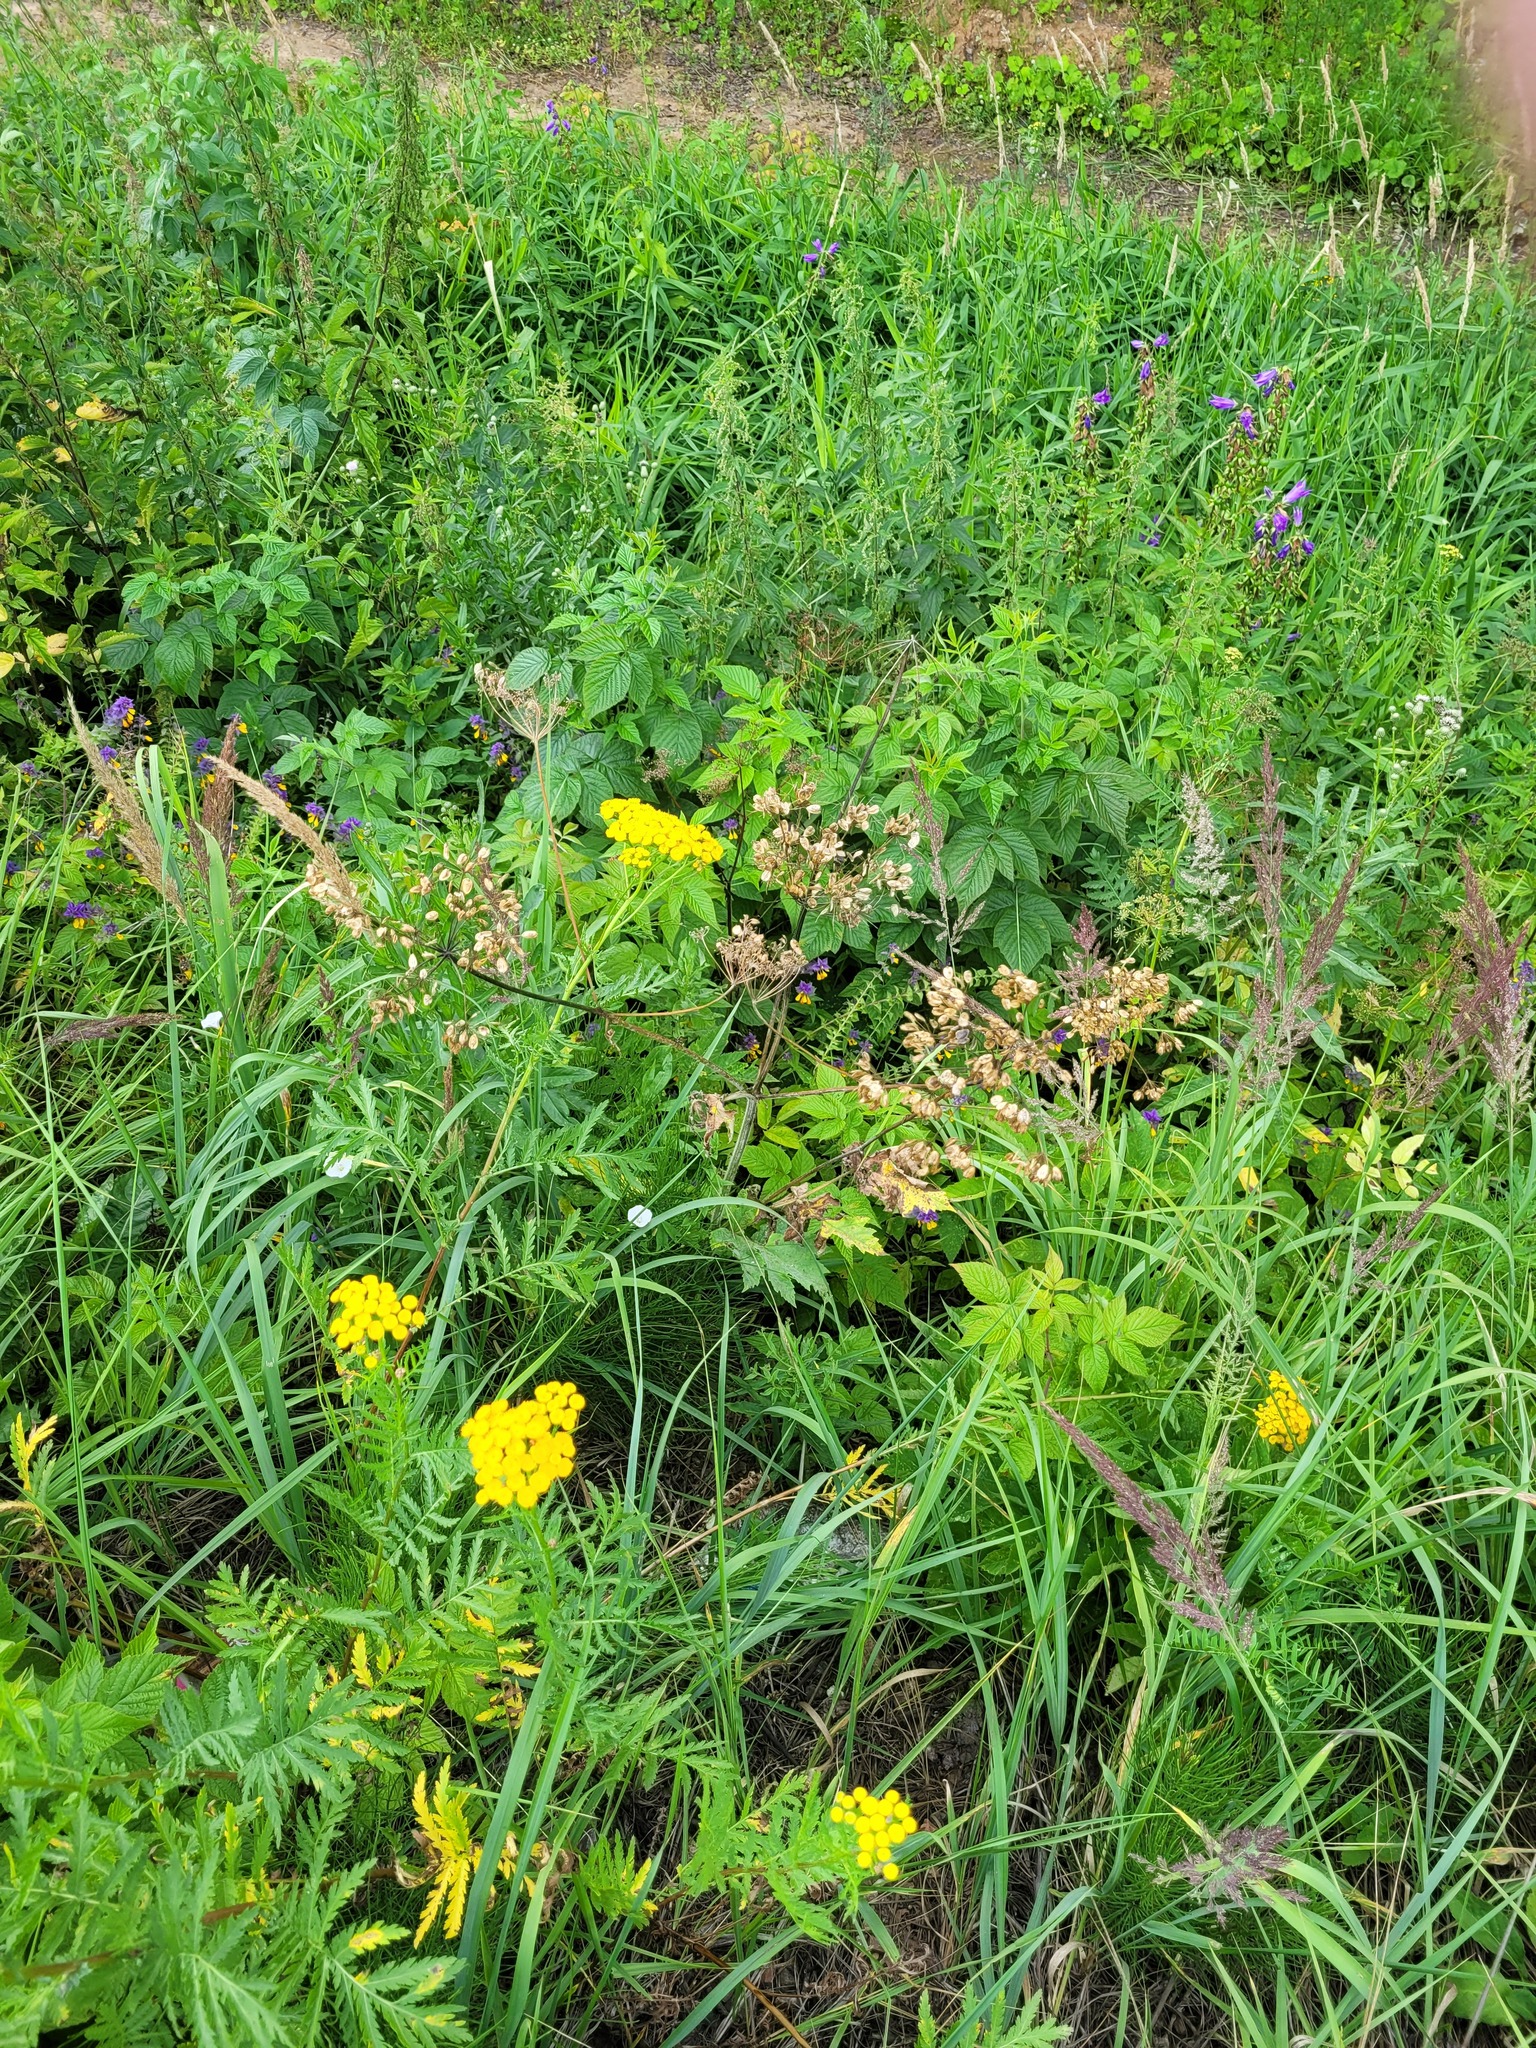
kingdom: Plantae
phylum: Tracheophyta
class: Magnoliopsida
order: Apiales
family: Apiaceae
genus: Heracleum
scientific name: Heracleum sphondylium
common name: Hogweed
